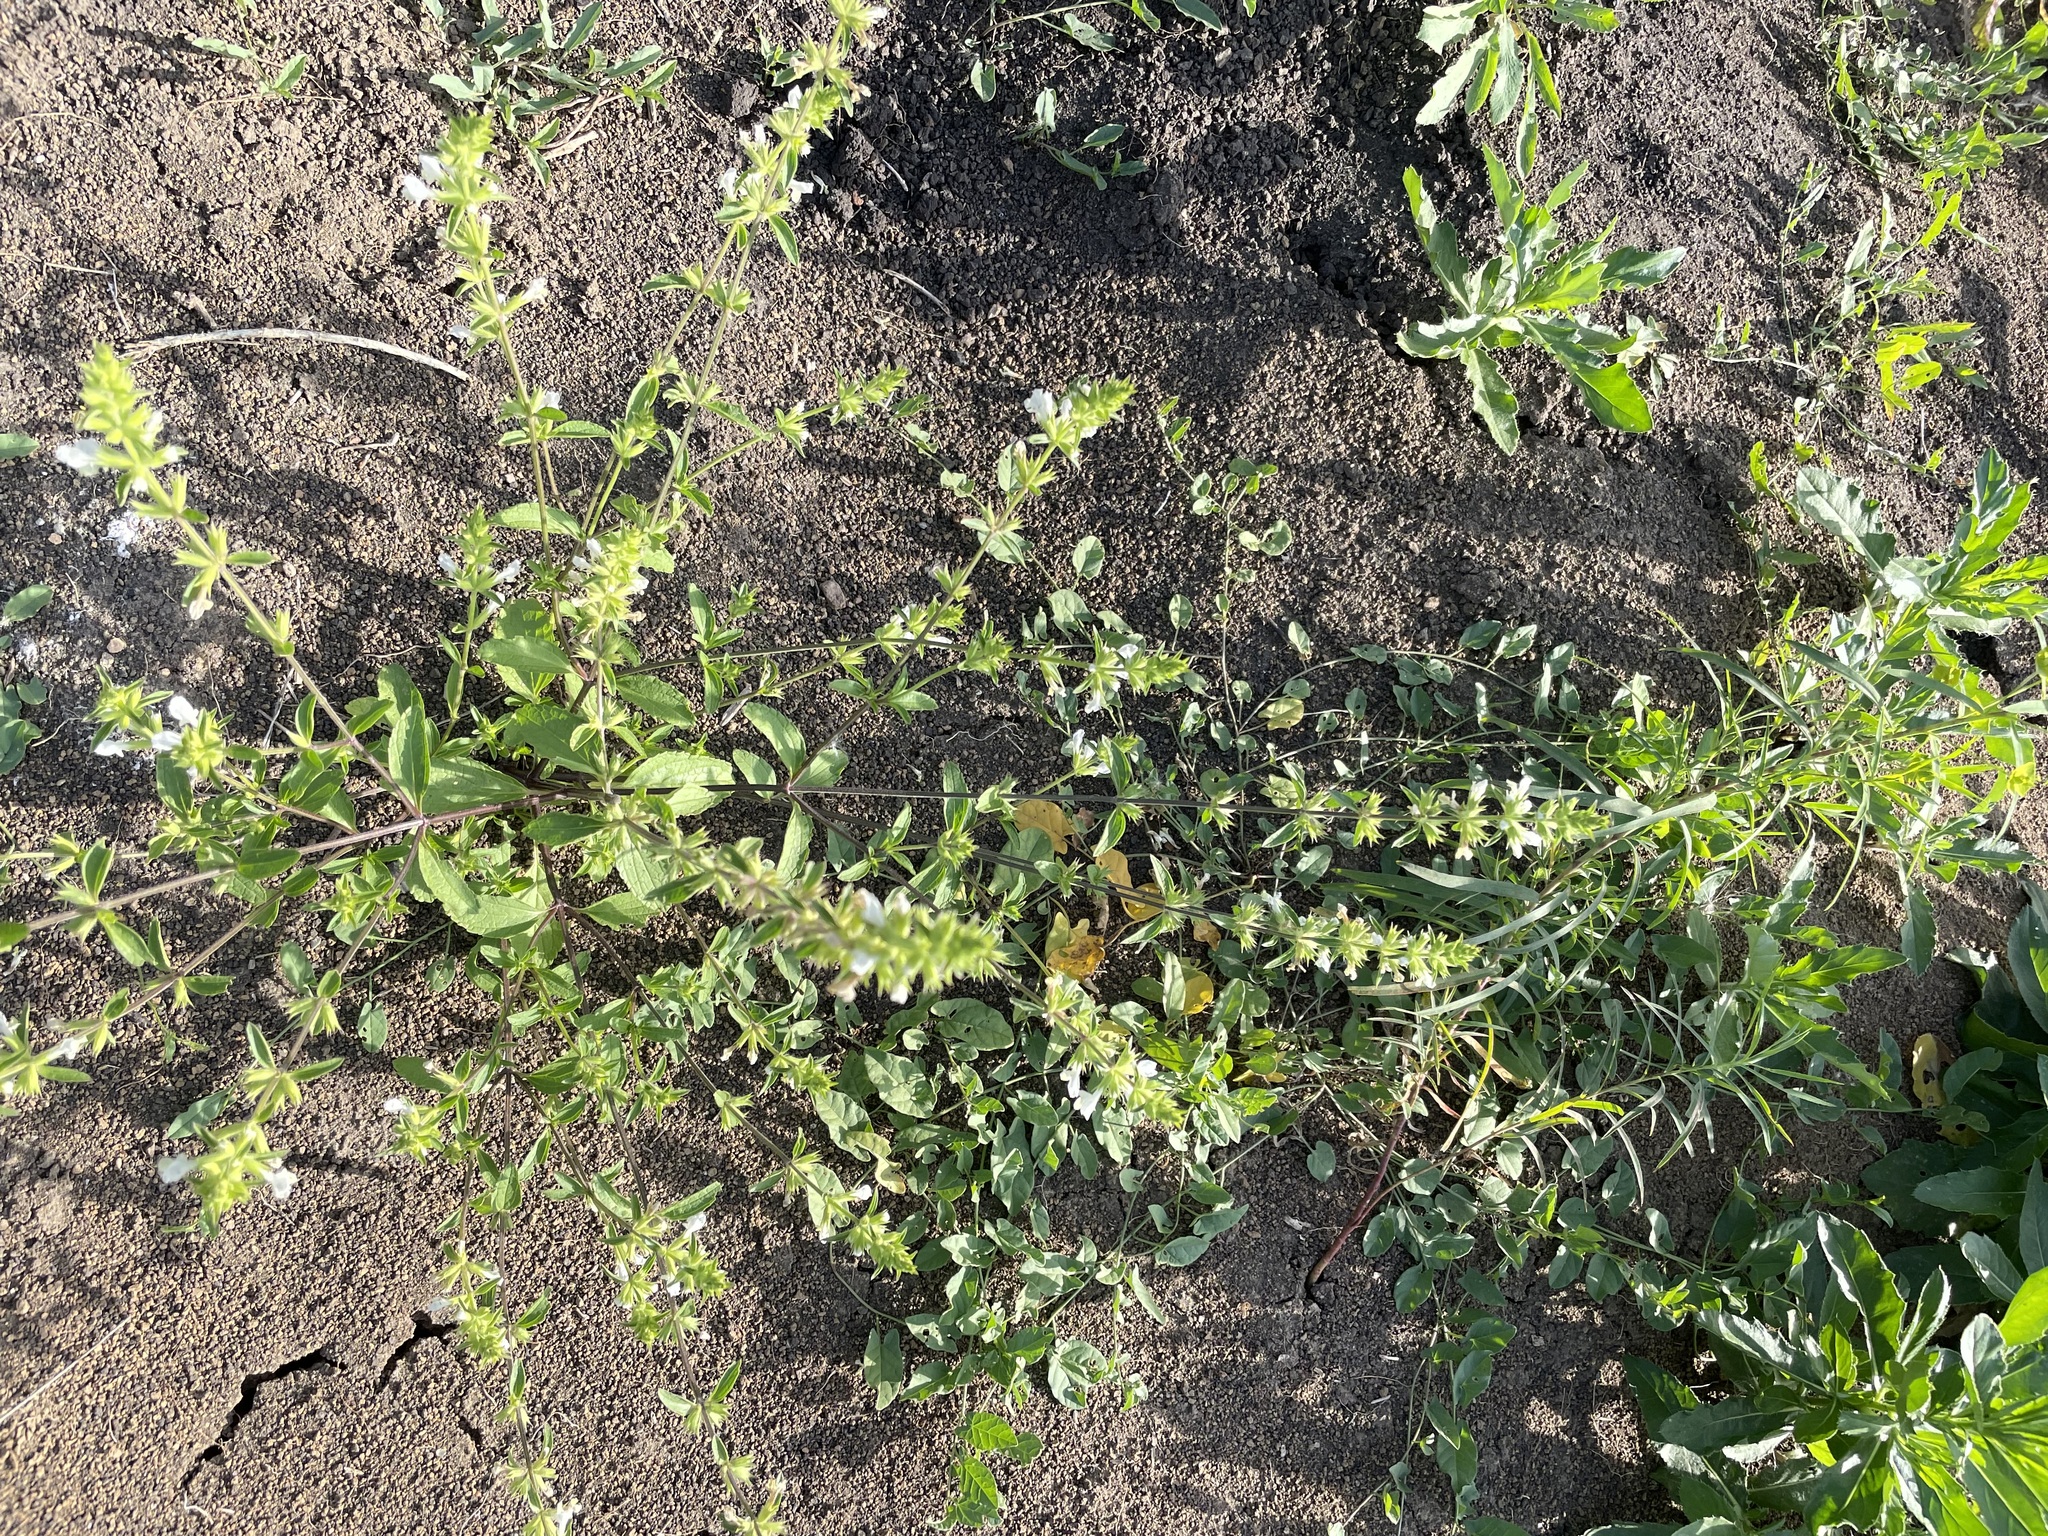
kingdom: Plantae
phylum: Tracheophyta
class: Magnoliopsida
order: Lamiales
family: Lamiaceae
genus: Stachys
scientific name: Stachys annua
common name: Annual yellow-woundwort
